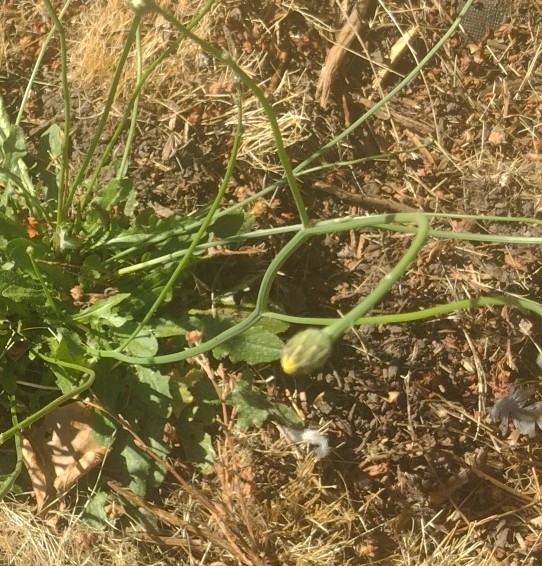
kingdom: Plantae
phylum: Tracheophyta
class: Magnoliopsida
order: Asterales
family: Asteraceae
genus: Hypochaeris
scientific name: Hypochaeris radicata
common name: Flatweed
